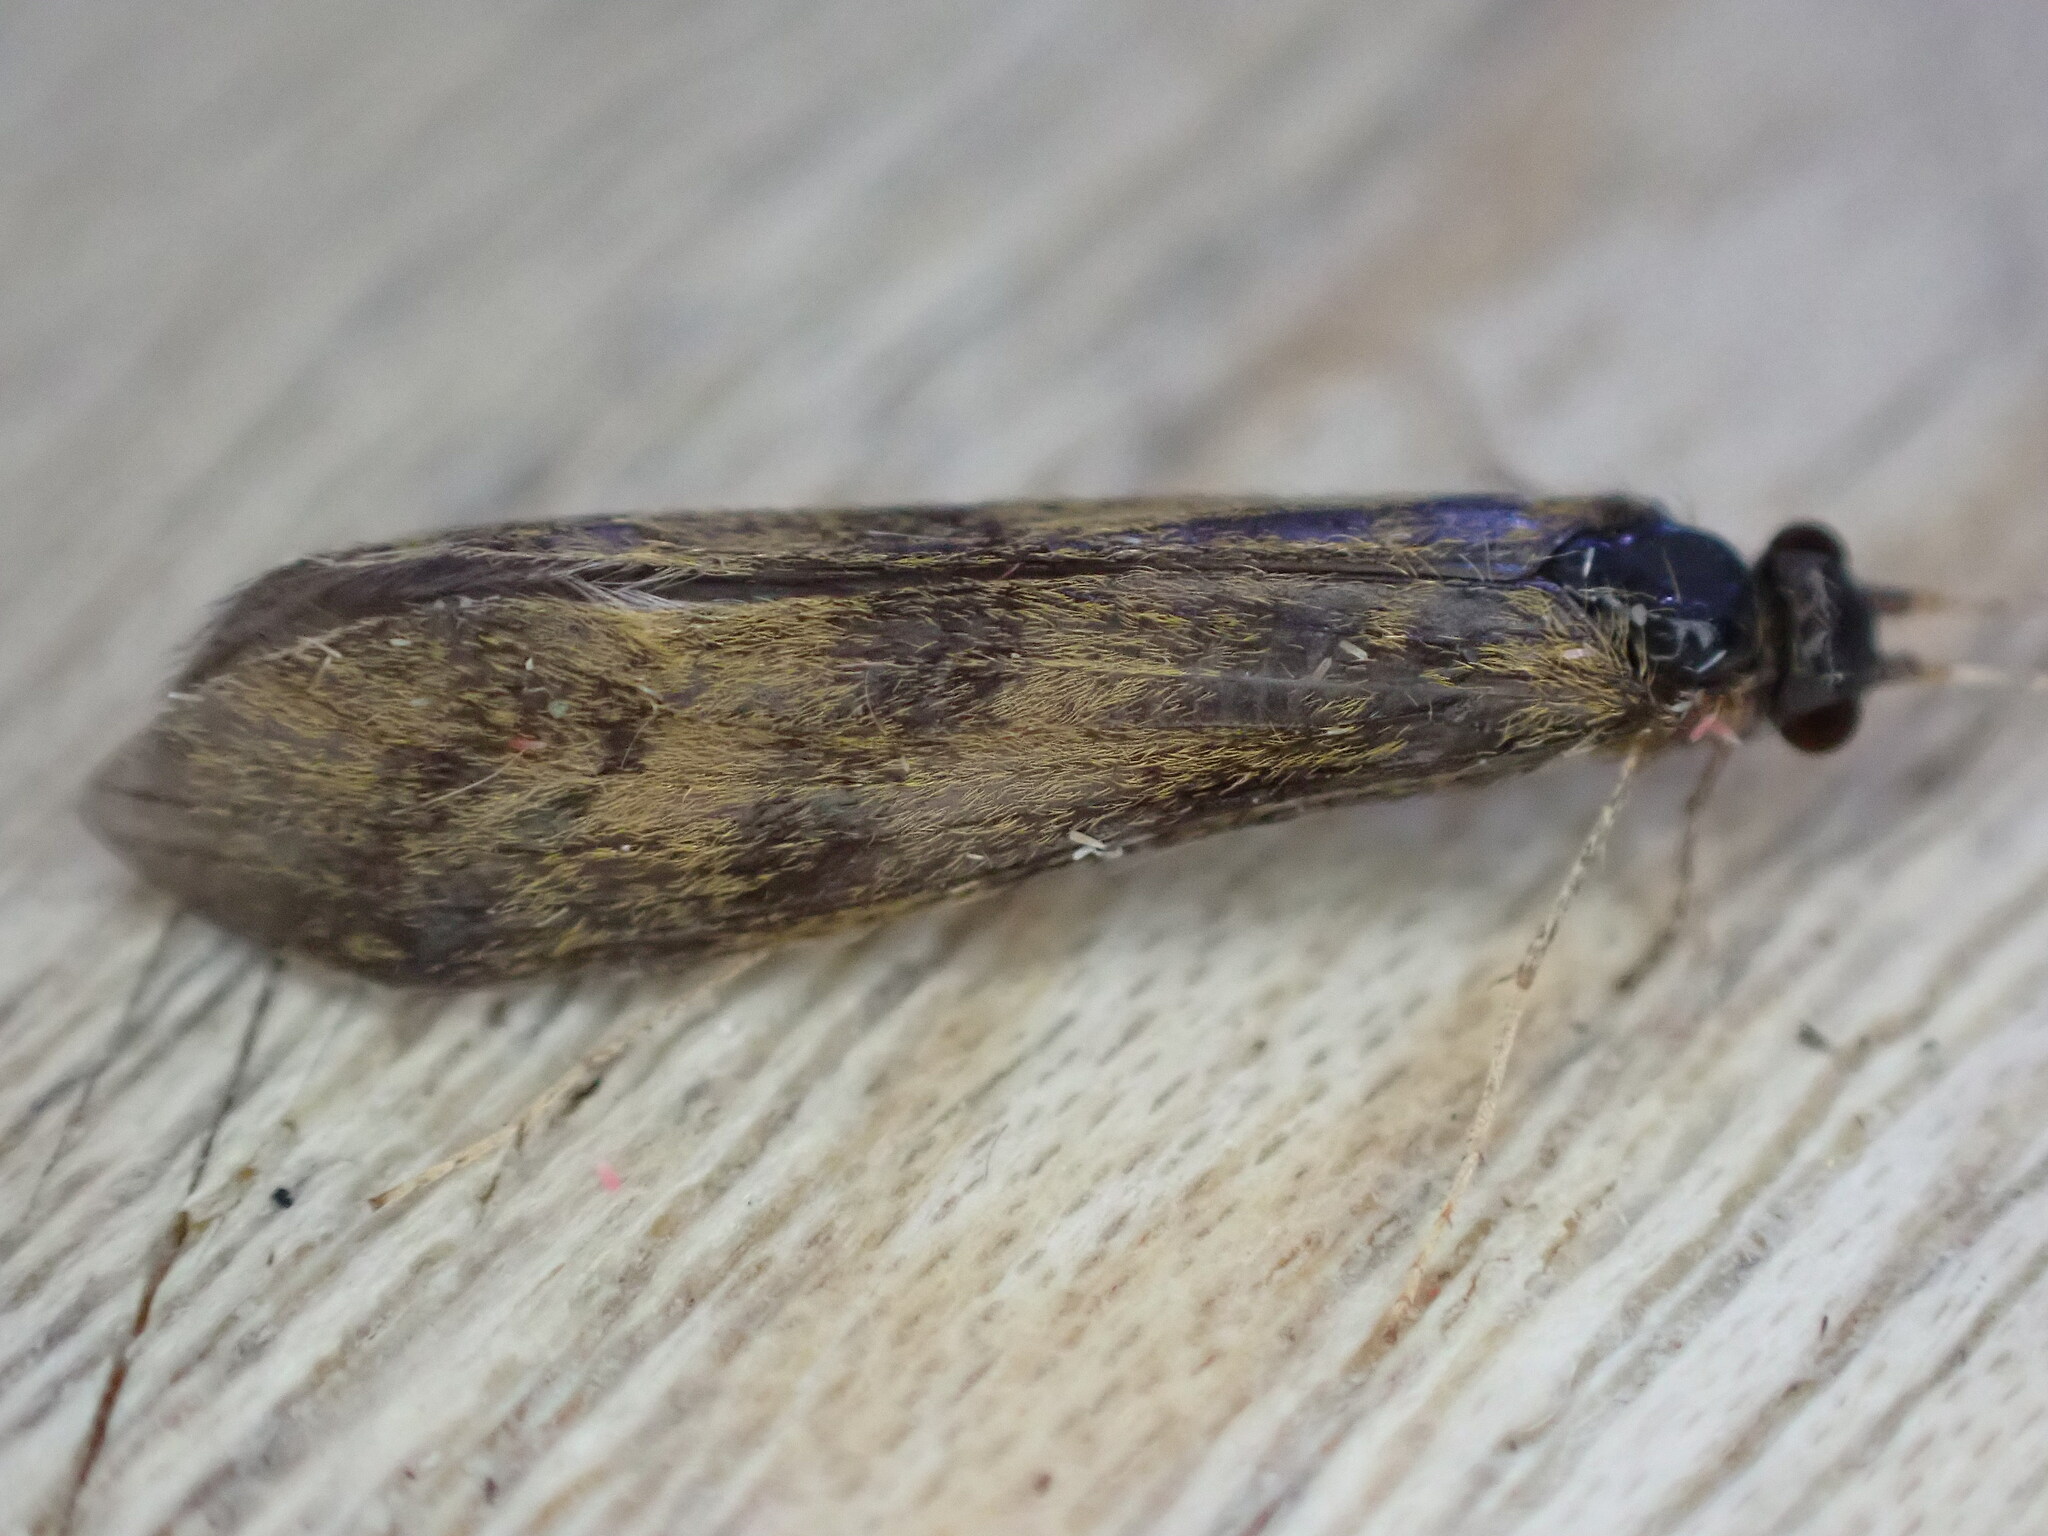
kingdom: Animalia
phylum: Arthropoda
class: Insecta
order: Trichoptera
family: Leptoceridae
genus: Mystacides
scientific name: Mystacides longicornis
